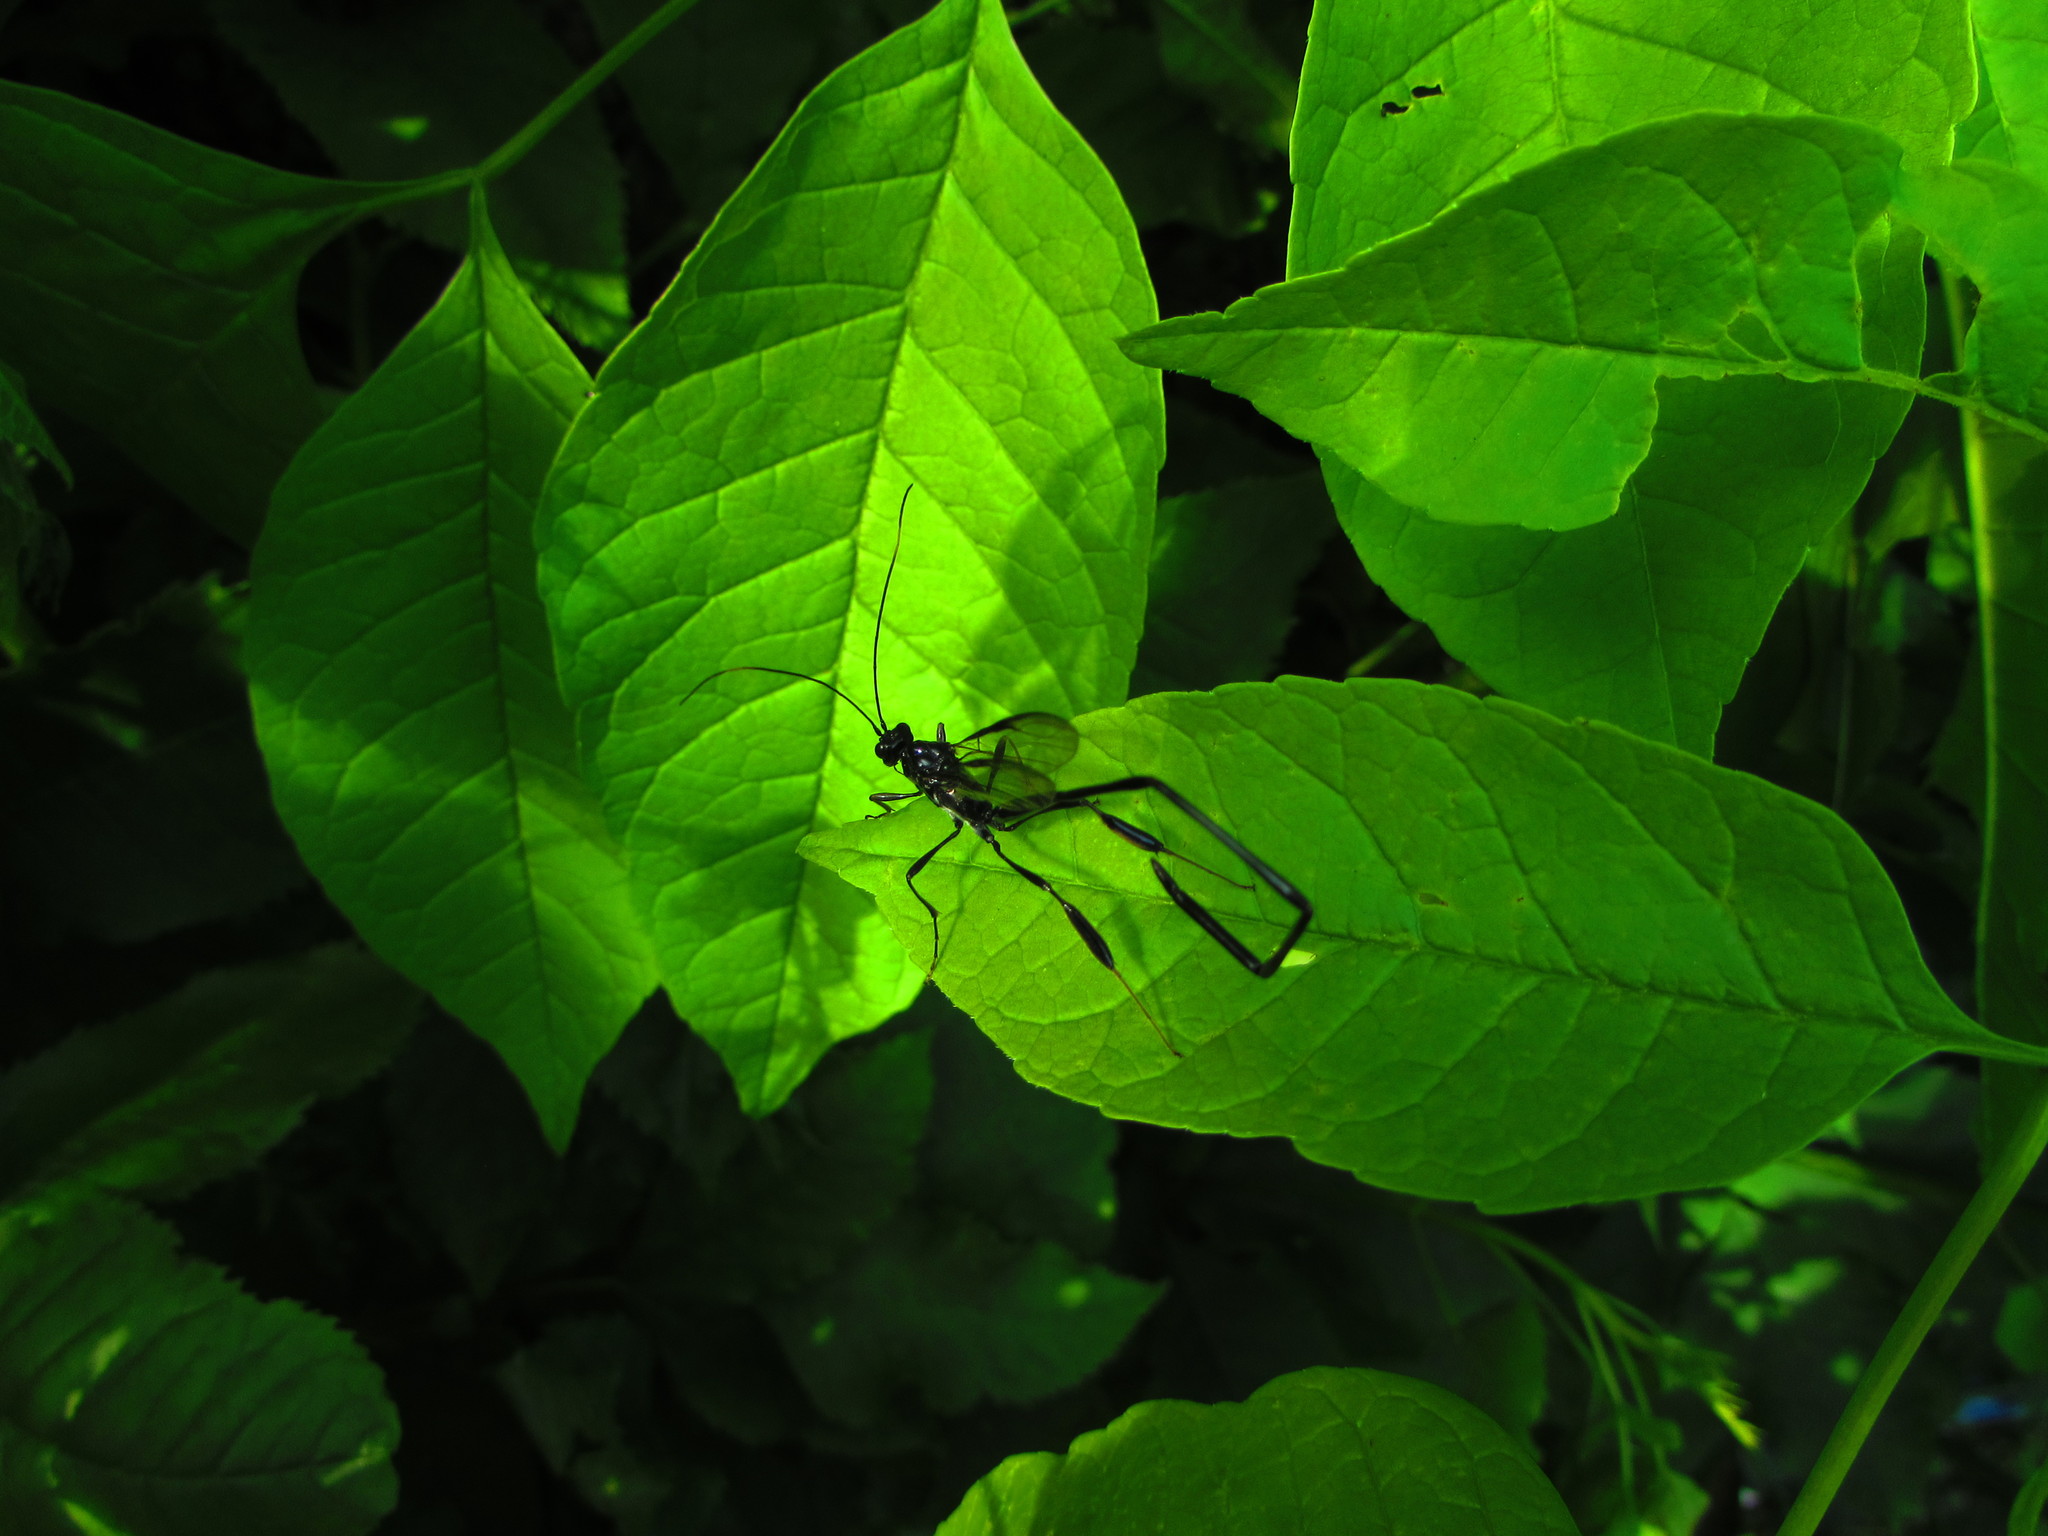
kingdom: Animalia
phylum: Arthropoda
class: Insecta
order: Hymenoptera
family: Pelecinidae
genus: Pelecinus
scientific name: Pelecinus polyturator
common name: American pelecinid wasp
